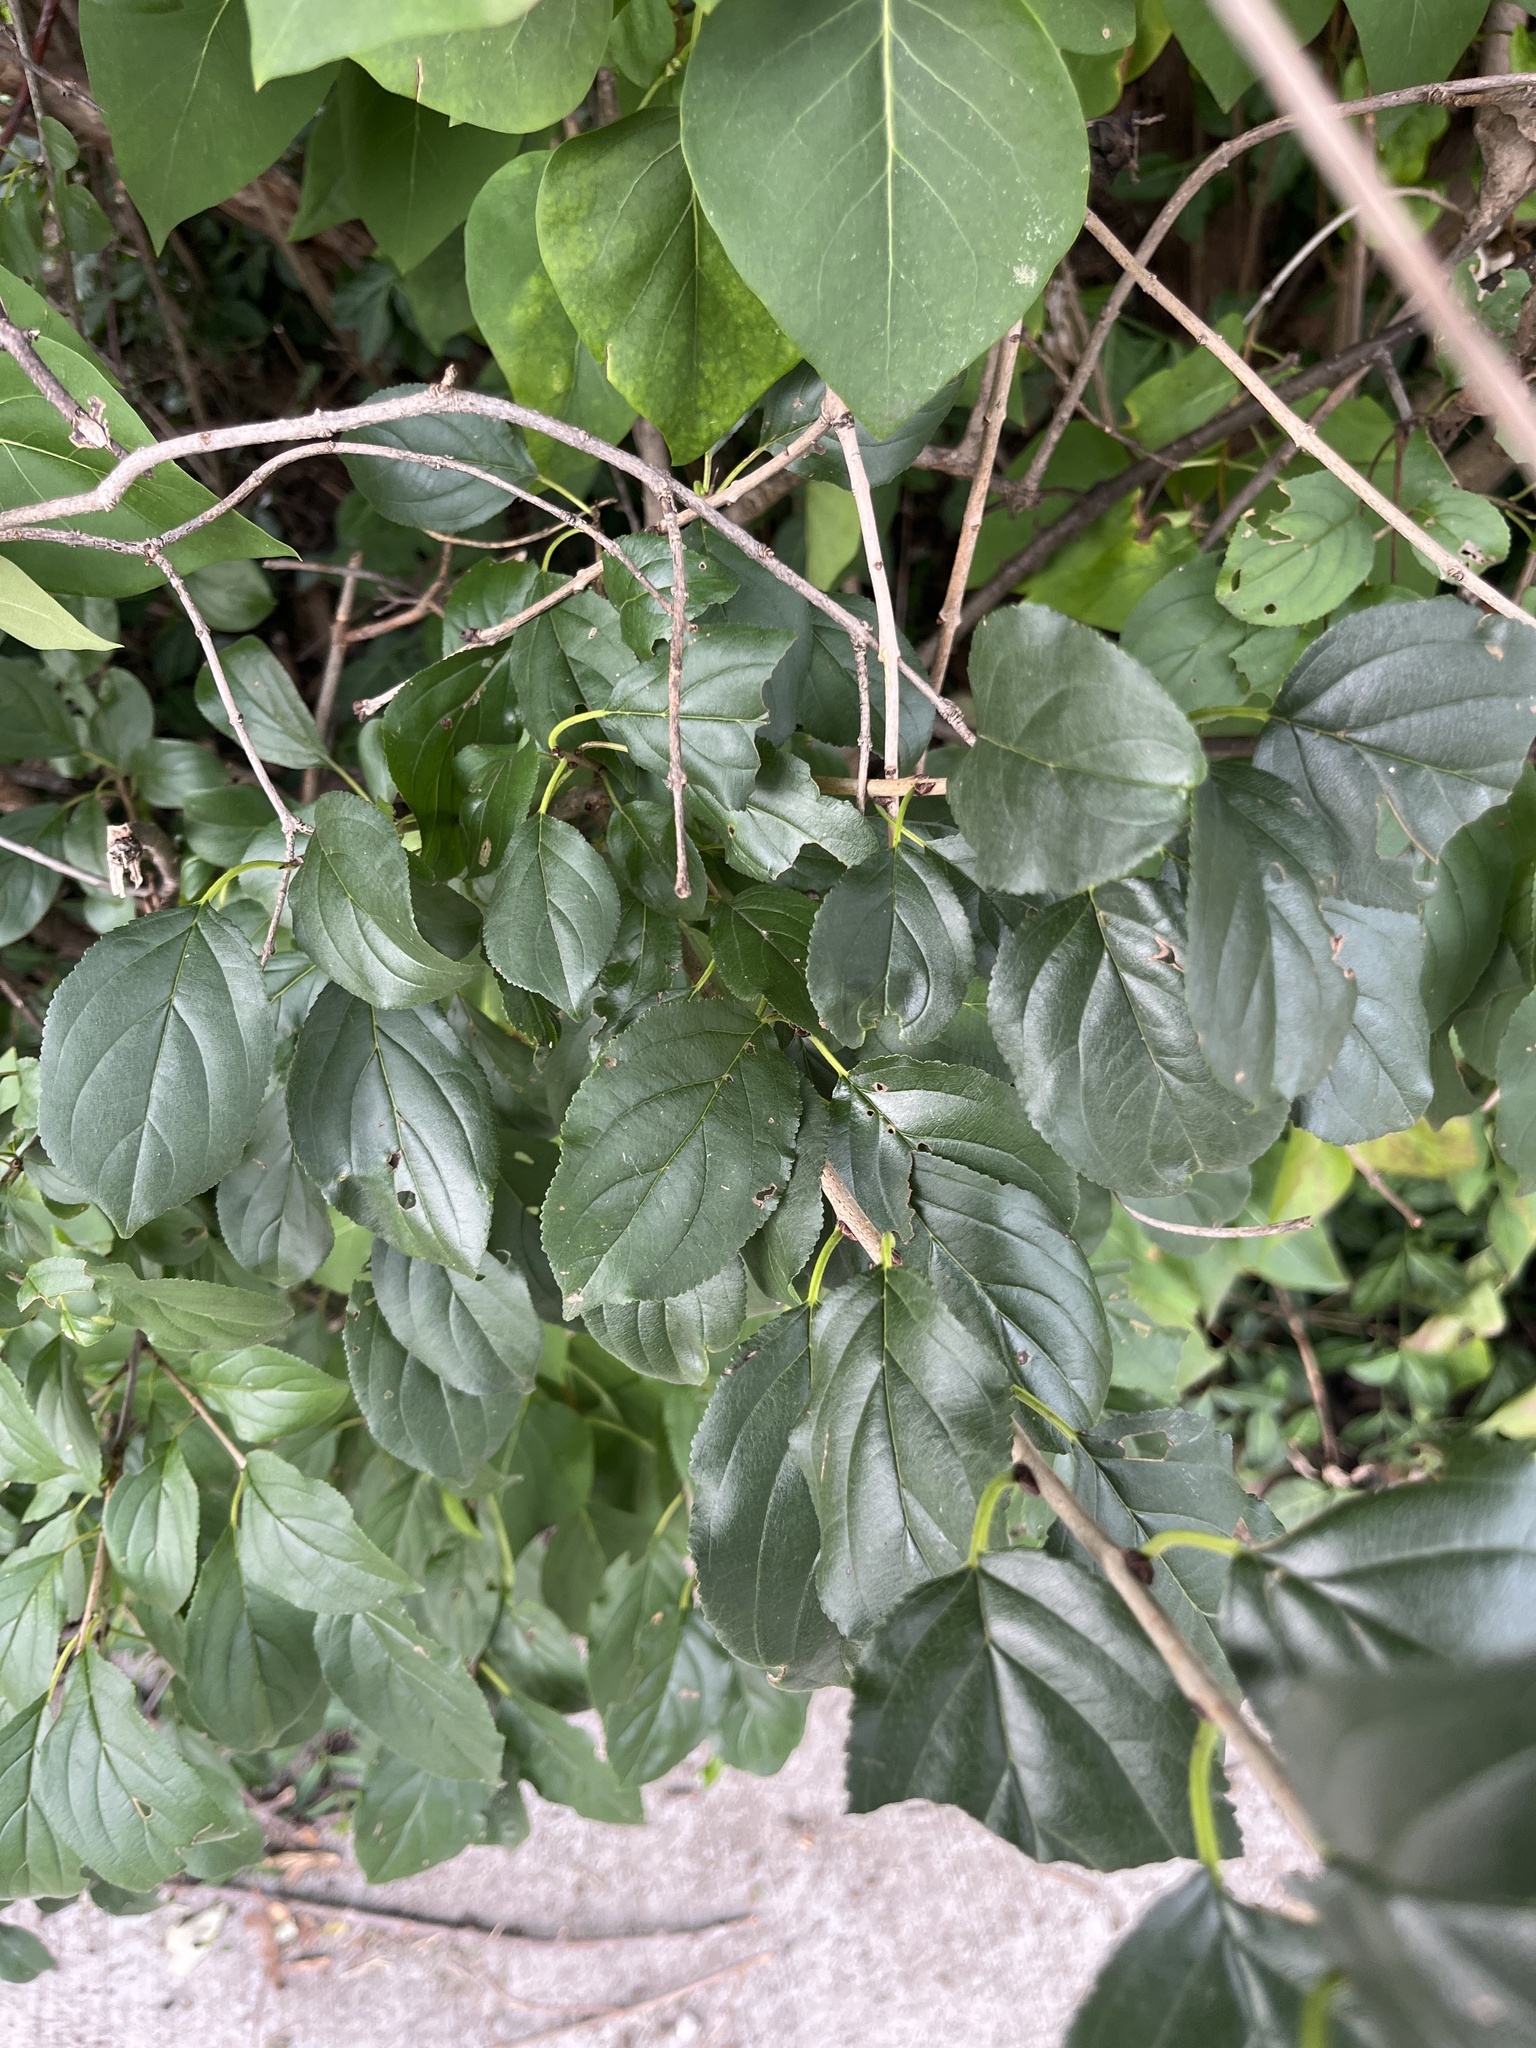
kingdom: Plantae
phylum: Tracheophyta
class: Magnoliopsida
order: Rosales
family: Rhamnaceae
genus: Rhamnus
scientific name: Rhamnus cathartica
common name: Common buckthorn
